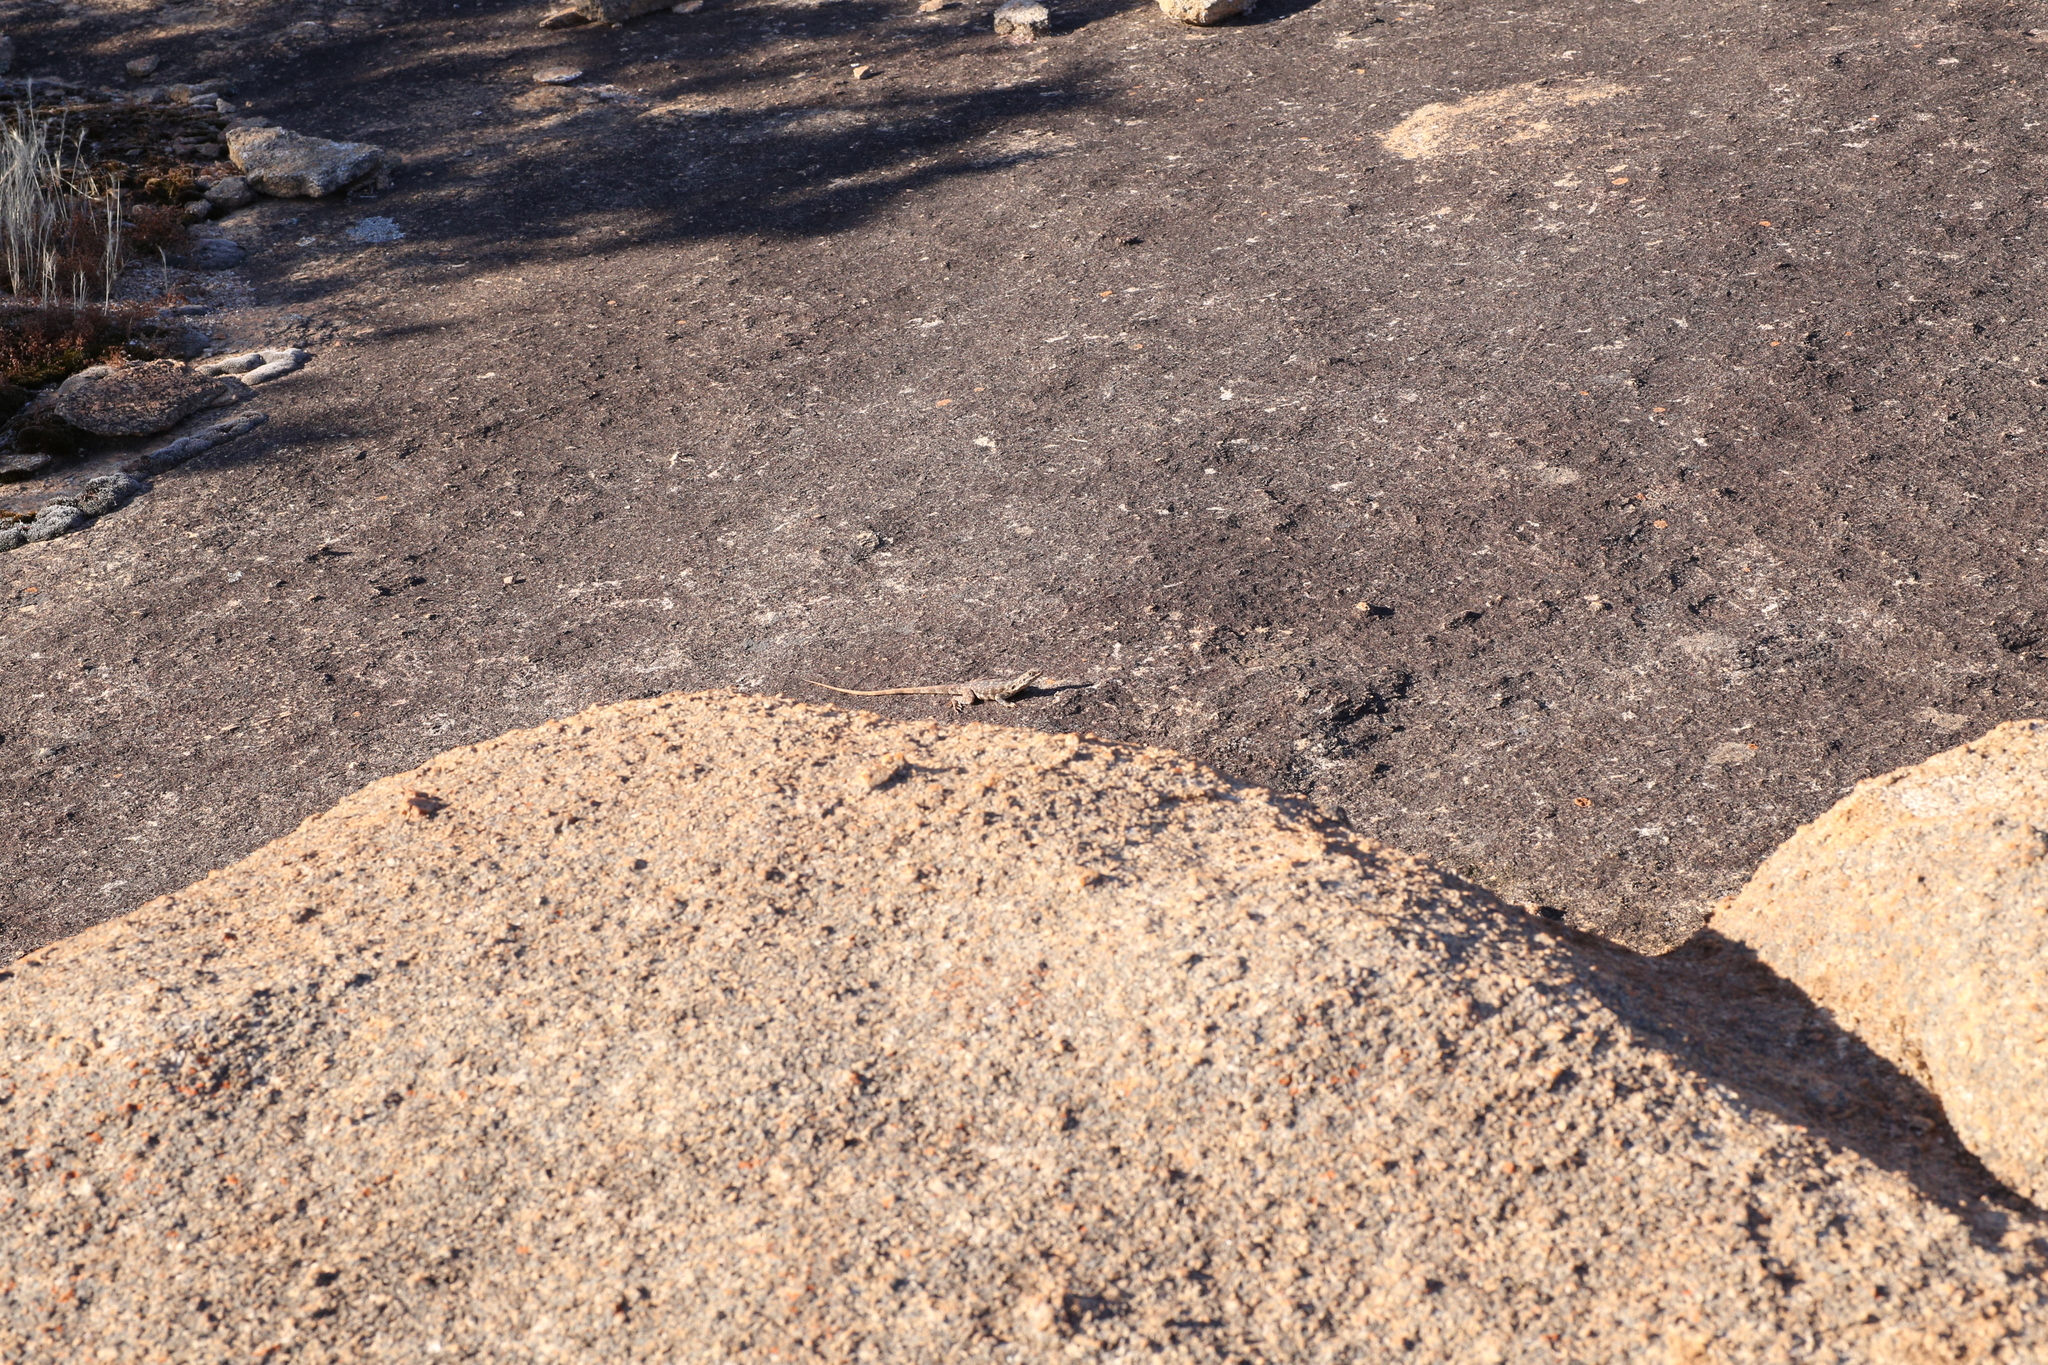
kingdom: Animalia
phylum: Chordata
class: Squamata
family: Agamidae
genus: Ctenophorus
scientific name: Ctenophorus ornatus
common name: Ornate crevice-dragon
